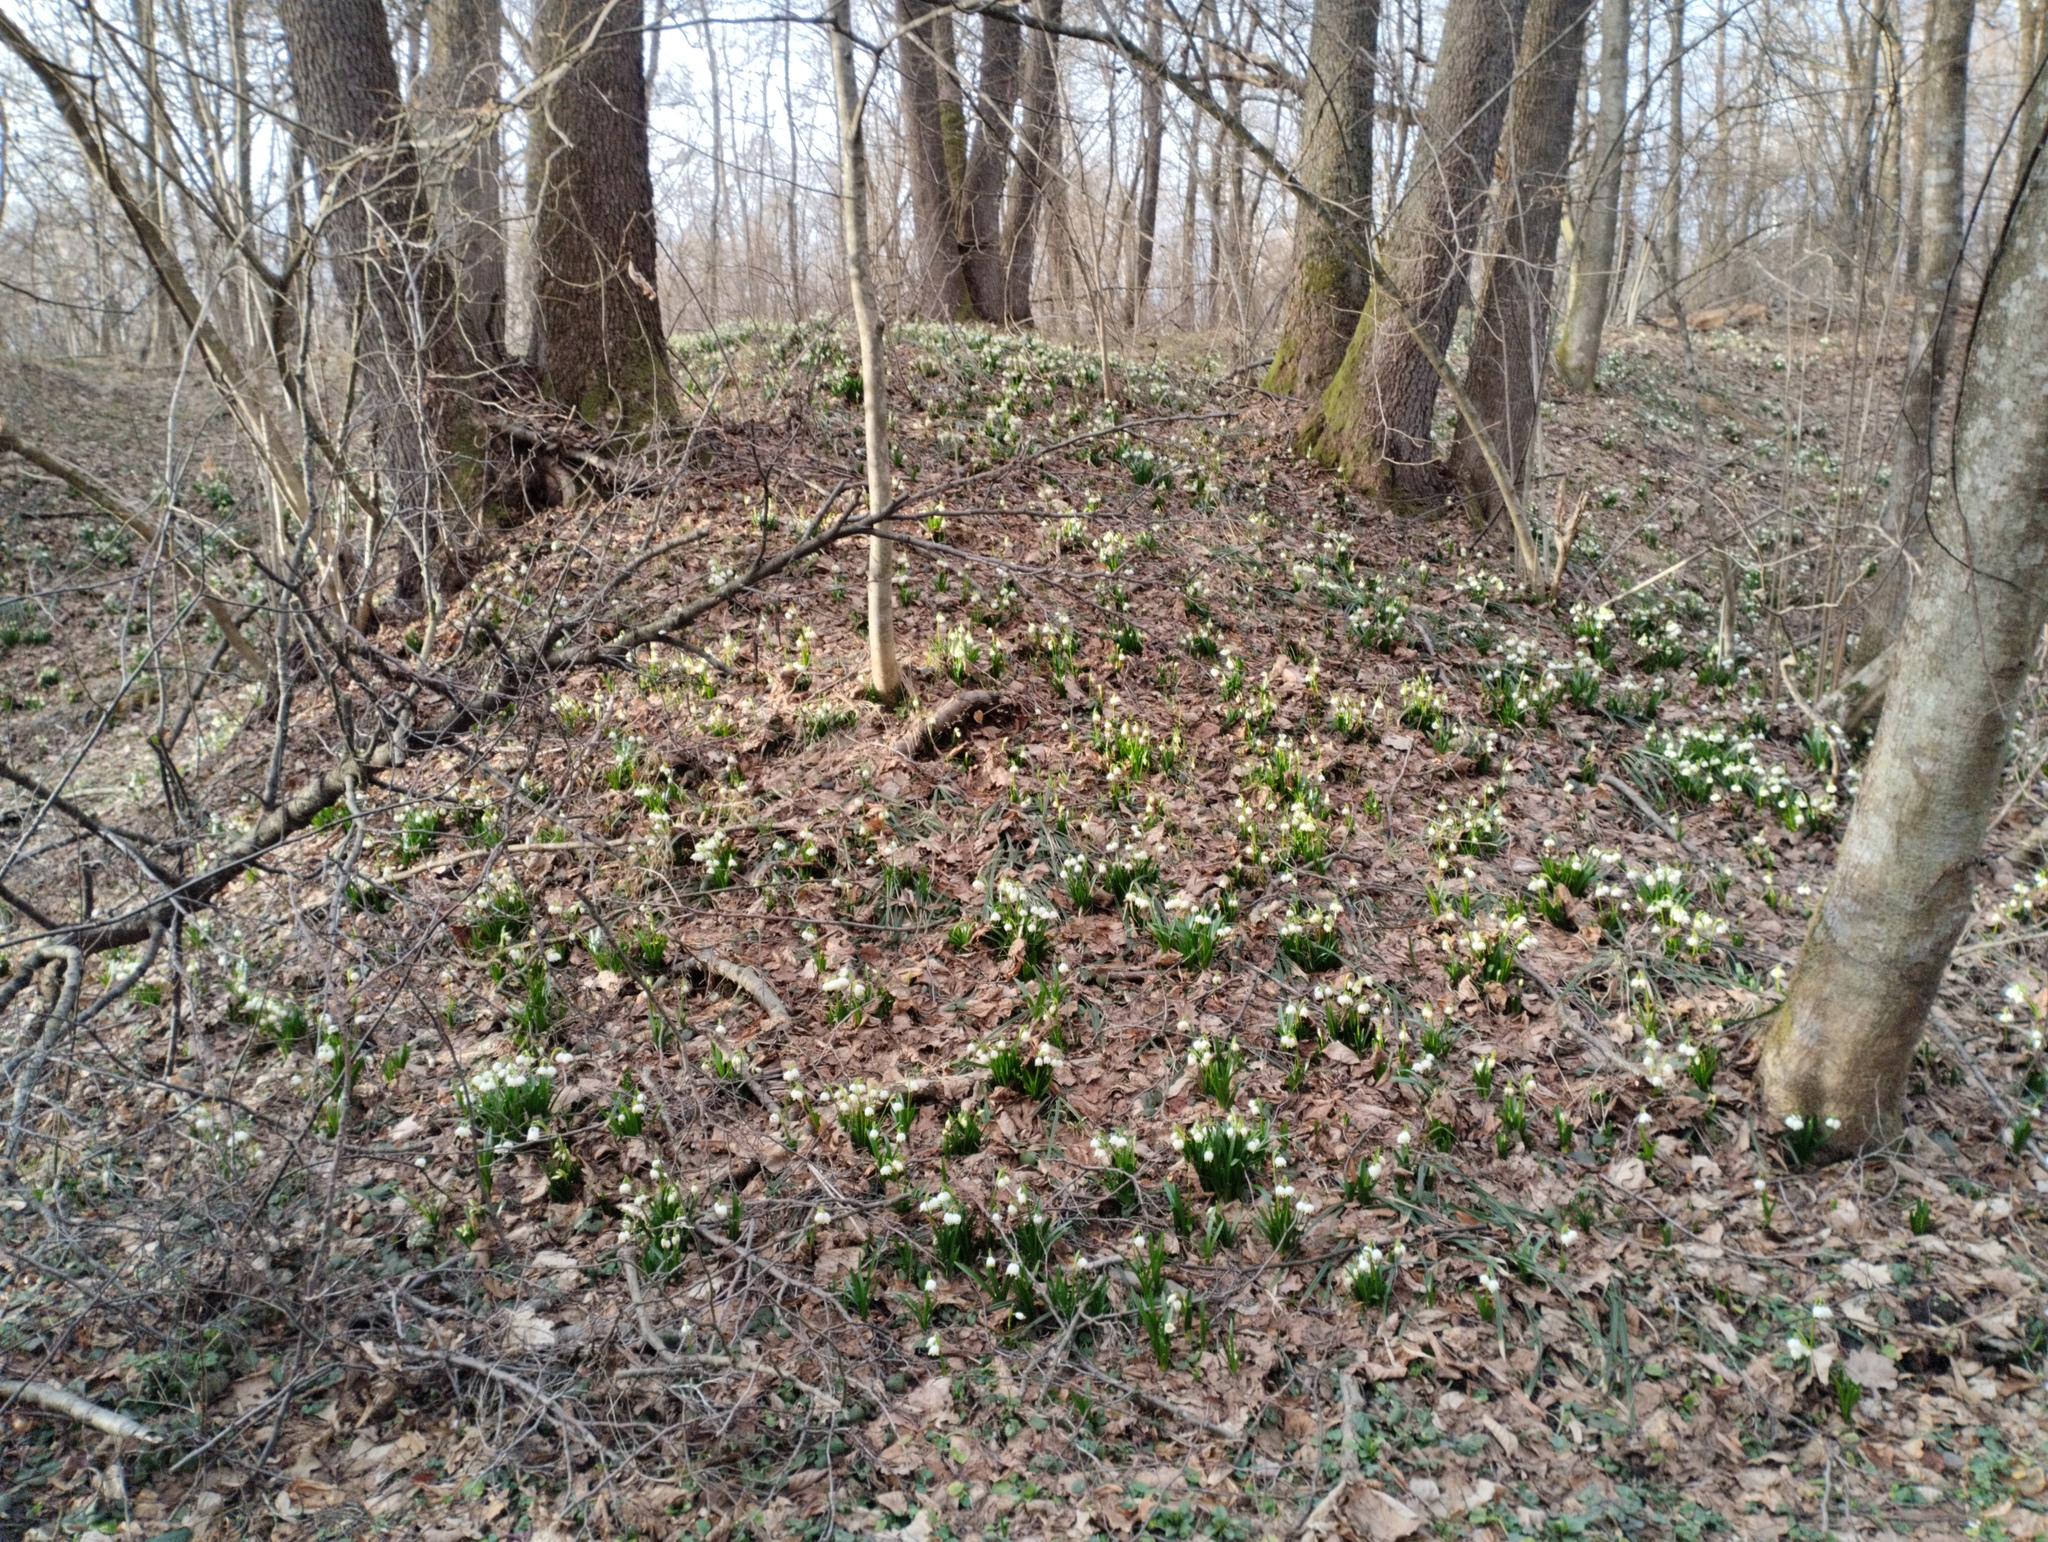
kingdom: Plantae
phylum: Tracheophyta
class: Liliopsida
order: Asparagales
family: Amaryllidaceae
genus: Leucojum
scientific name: Leucojum vernum
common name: Spring snowflake
